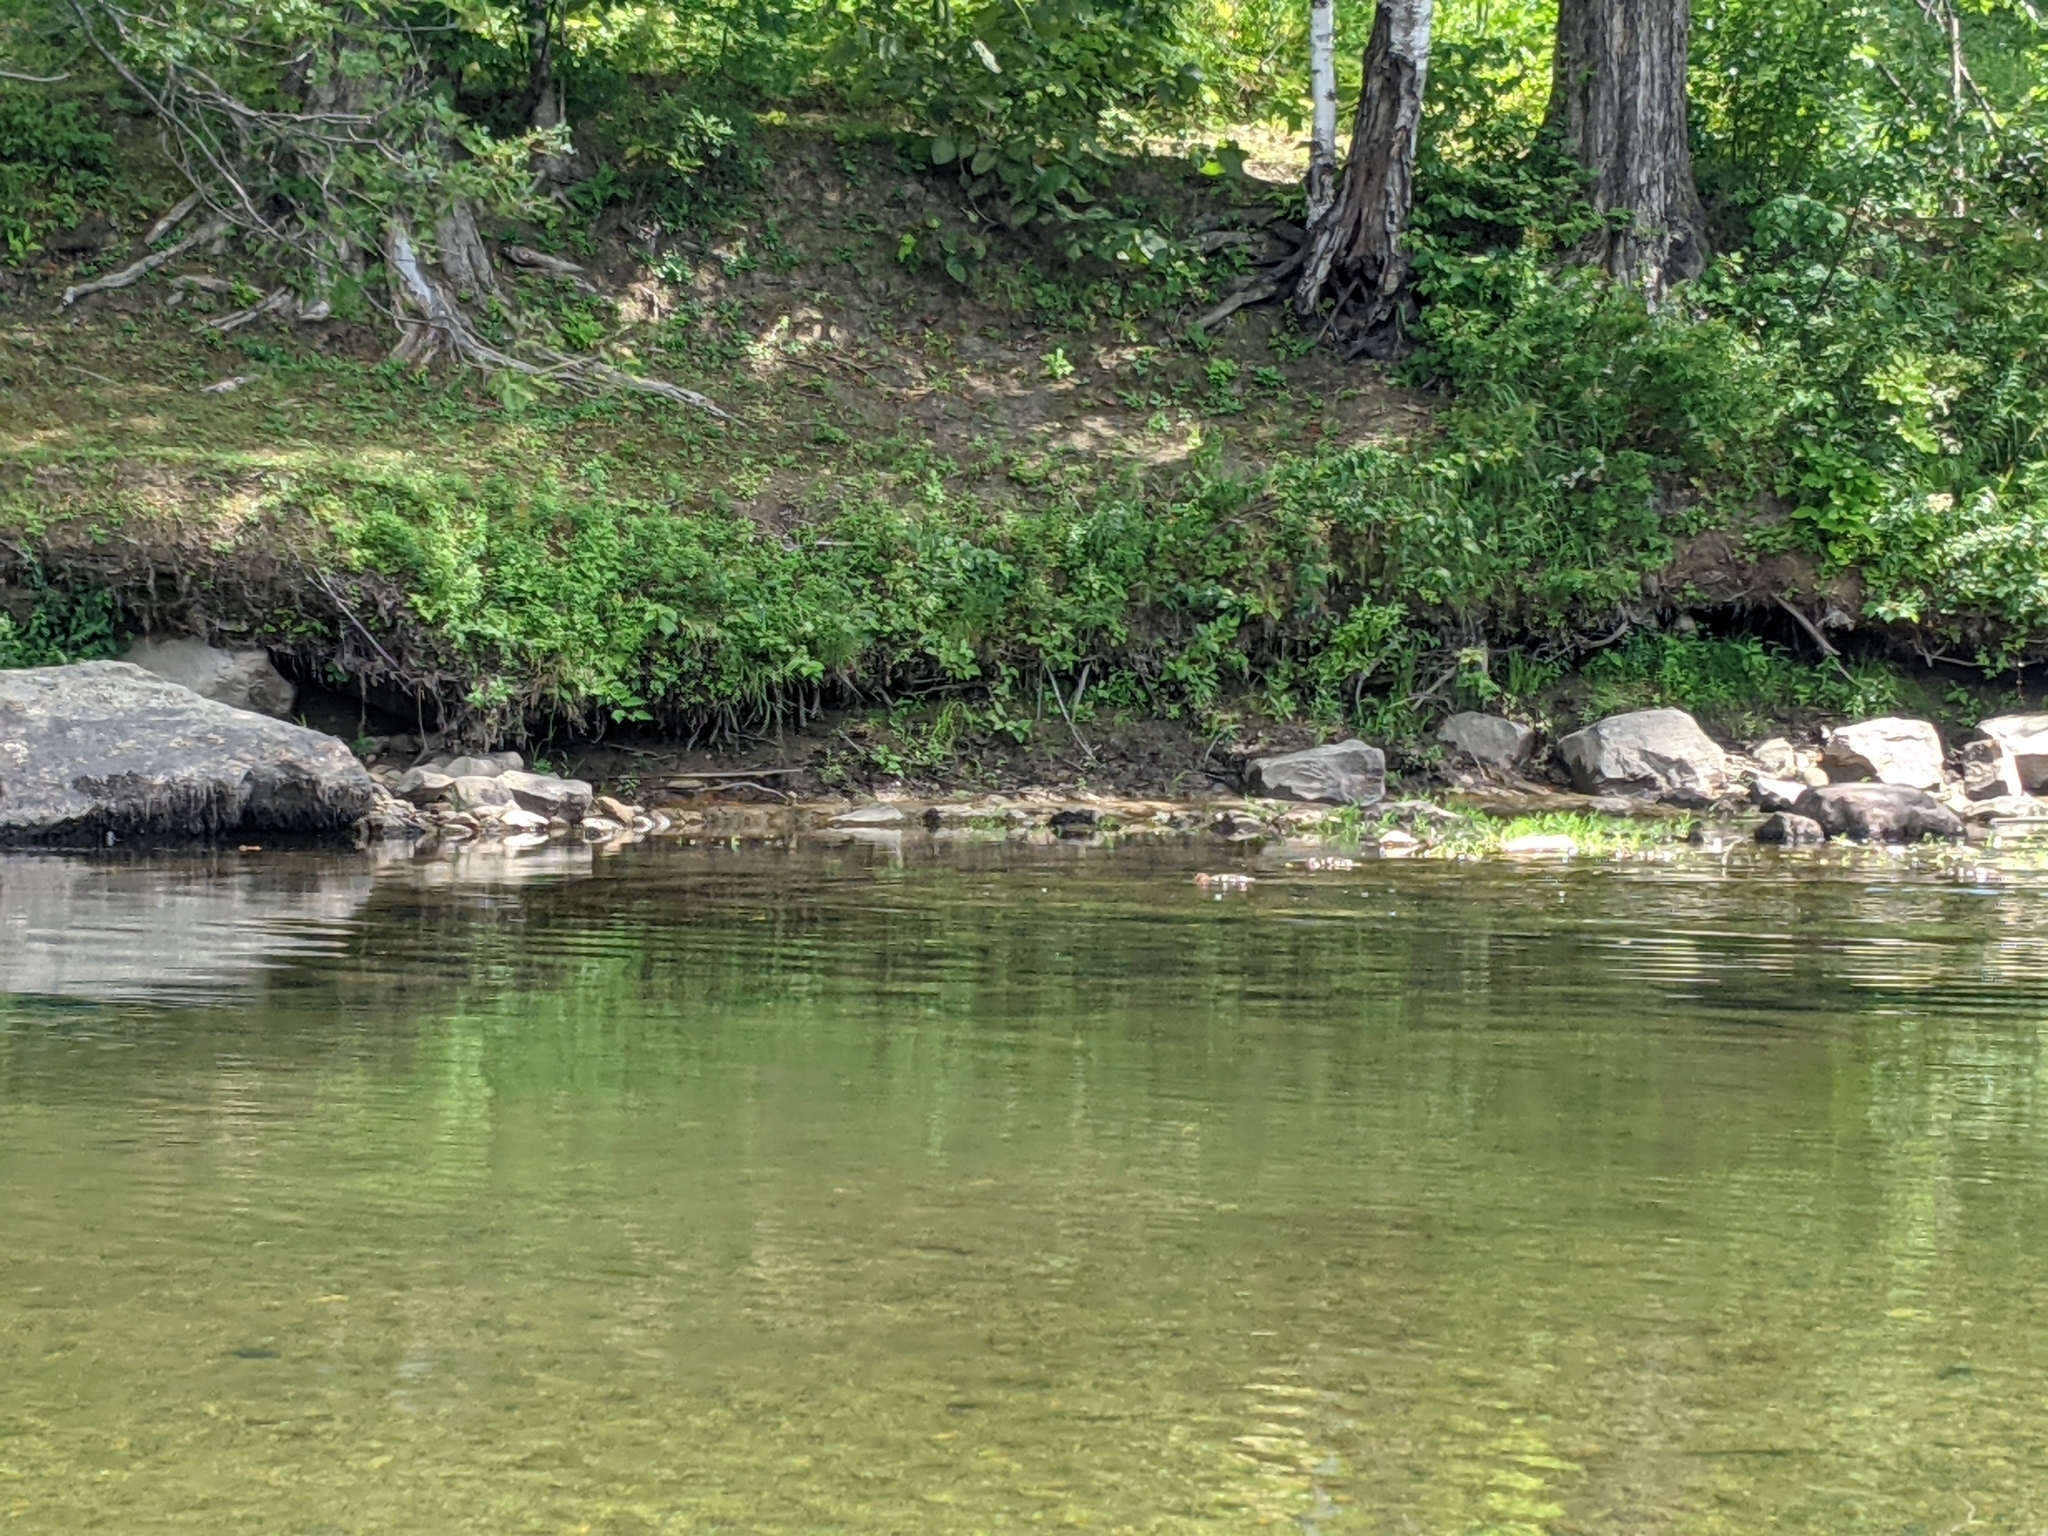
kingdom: Animalia
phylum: Chordata
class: Aves
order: Anseriformes
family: Anatidae
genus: Mergus
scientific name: Mergus merganser
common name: Common merganser
